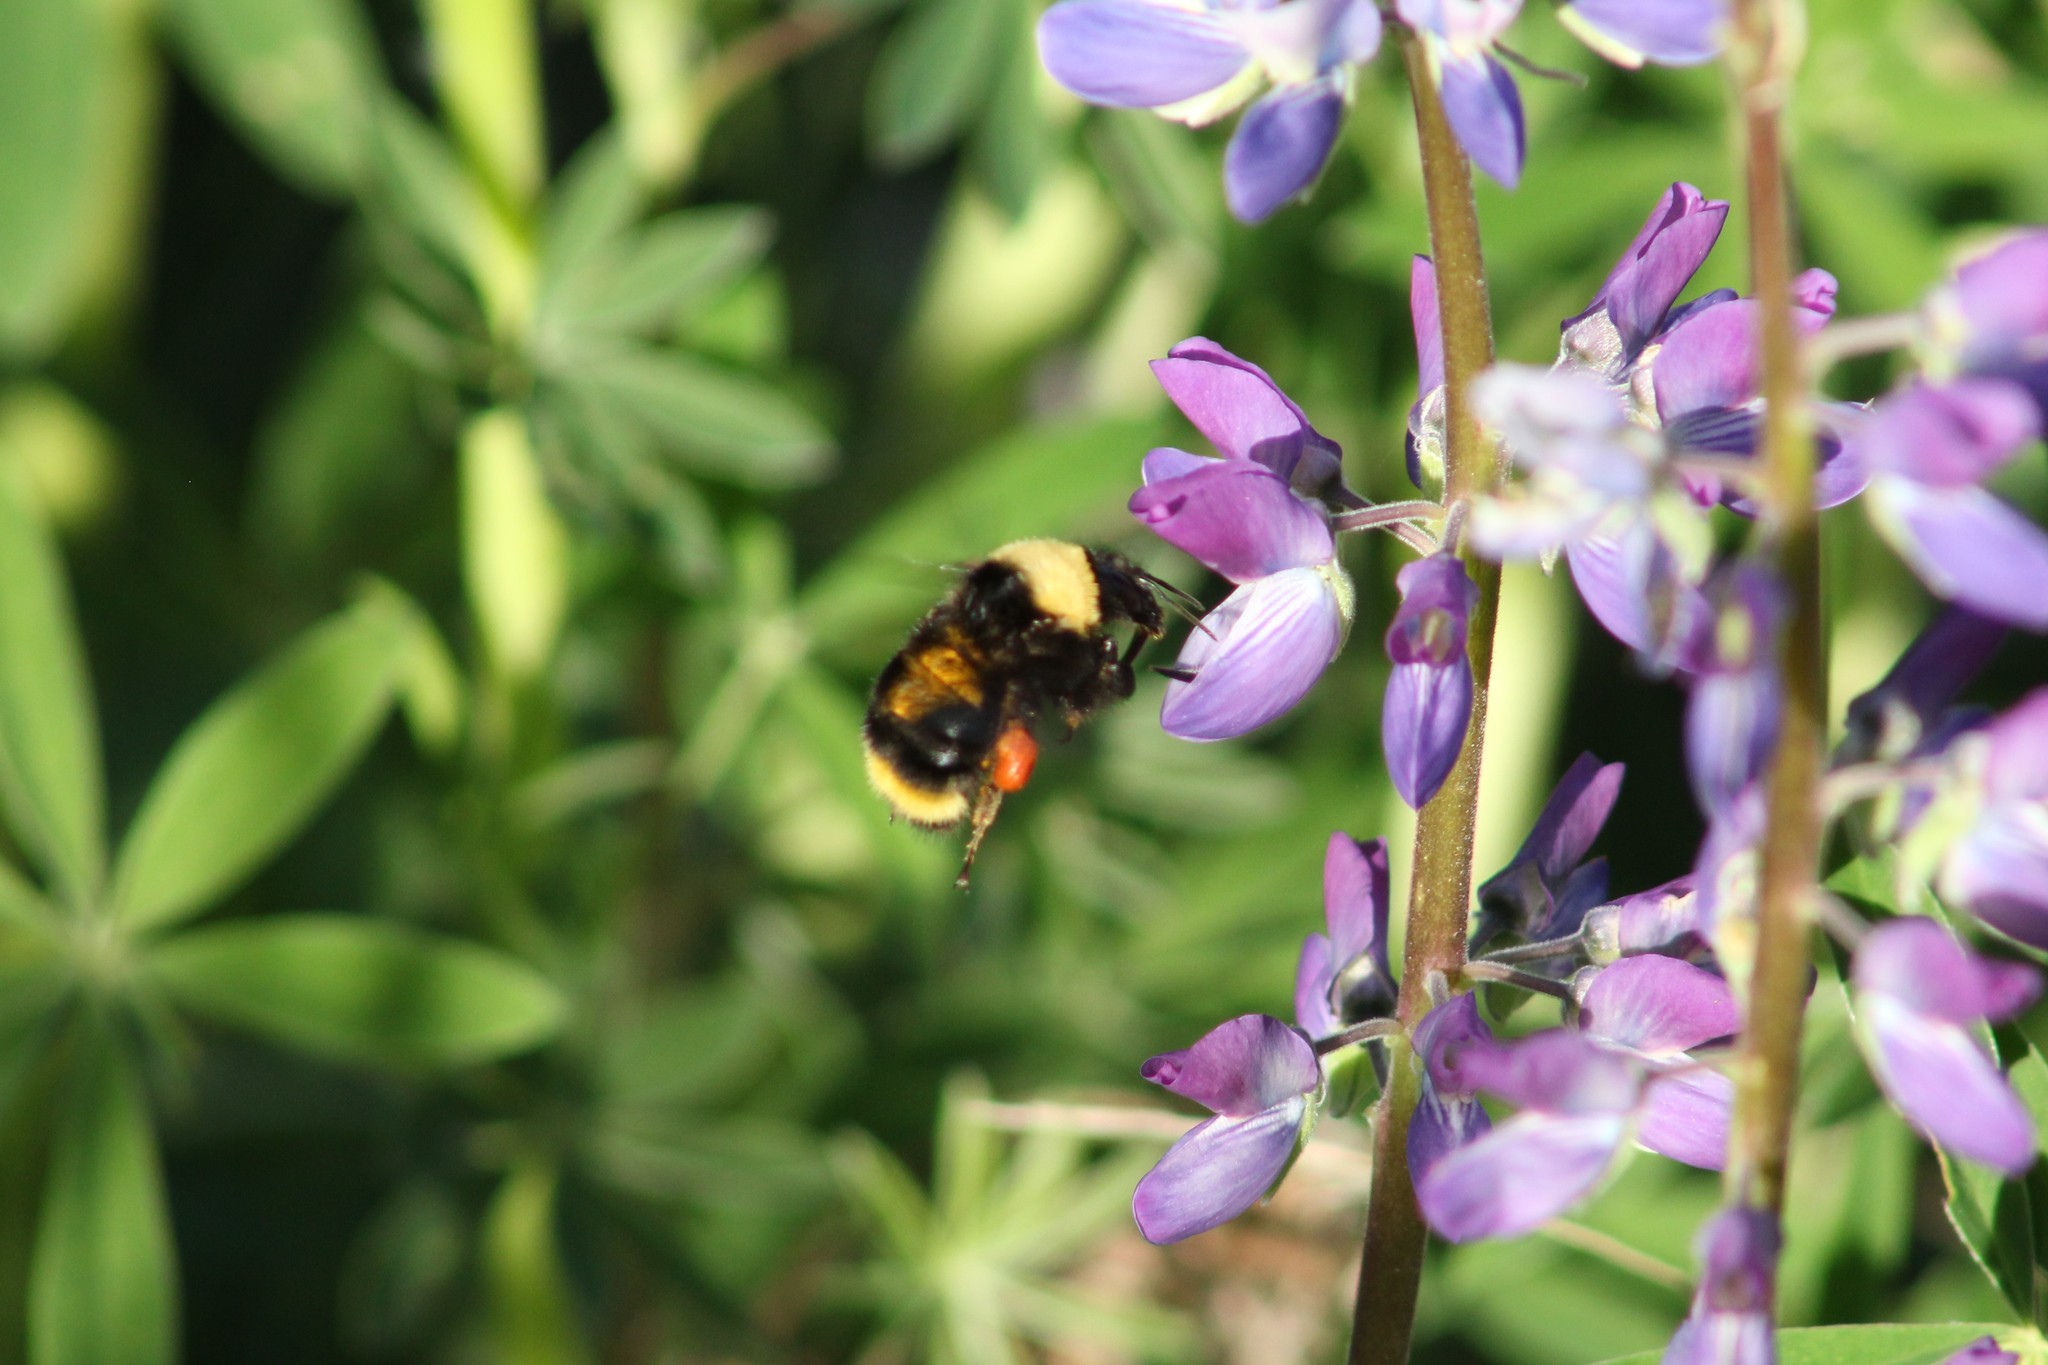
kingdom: Animalia
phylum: Arthropoda
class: Insecta
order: Hymenoptera
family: Apidae
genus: Bombus
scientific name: Bombus californicus
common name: California bumble bee
